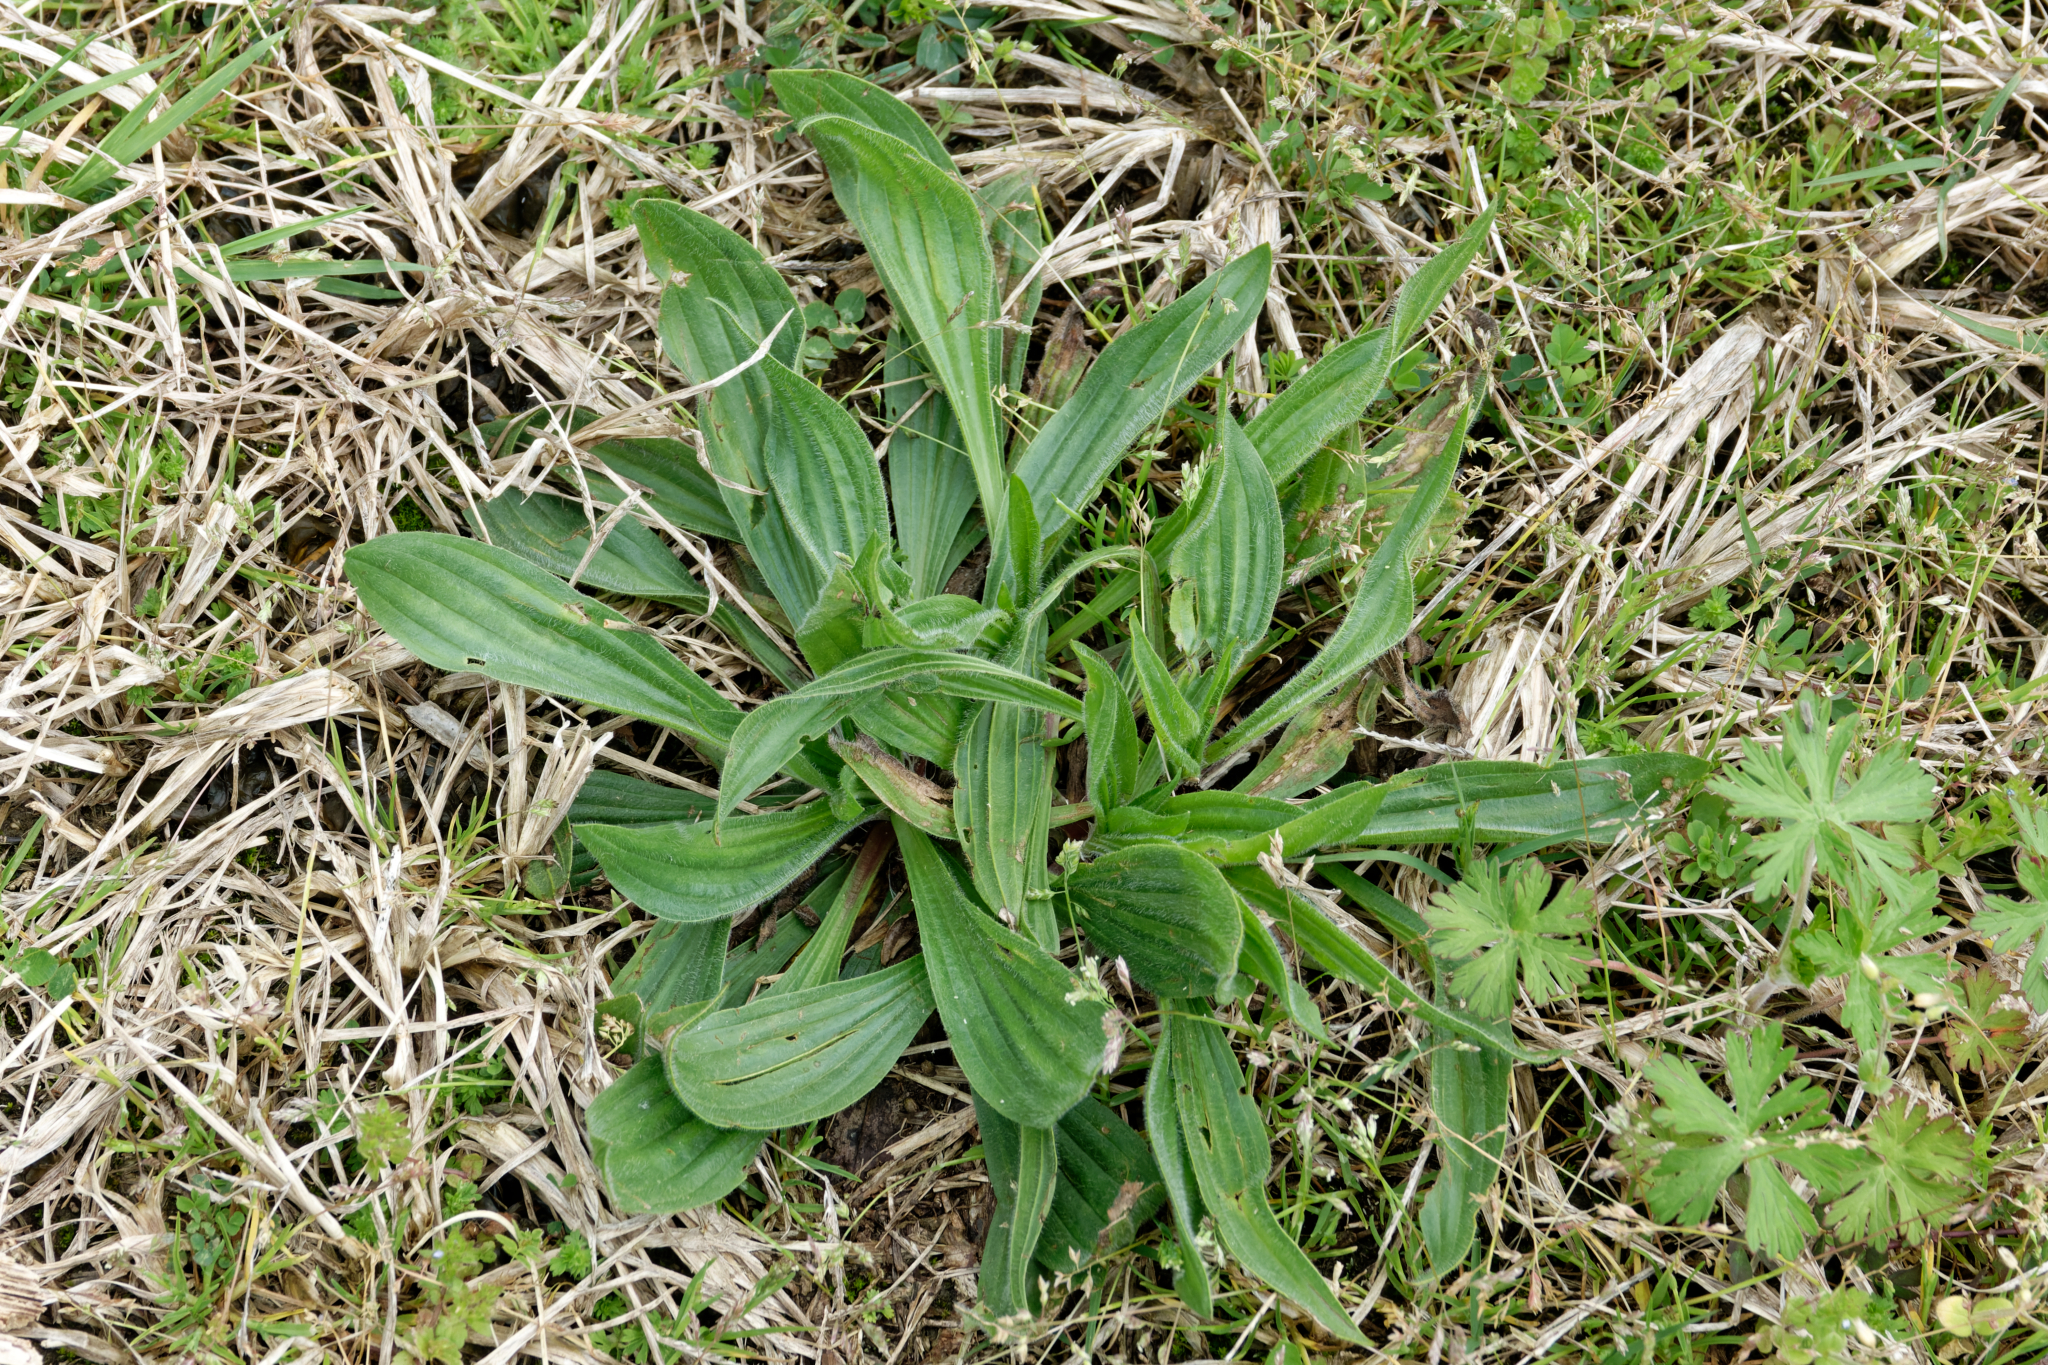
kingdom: Plantae
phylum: Tracheophyta
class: Magnoliopsida
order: Lamiales
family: Plantaginaceae
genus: Plantago
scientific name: Plantago lanceolata
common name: Ribwort plantain
